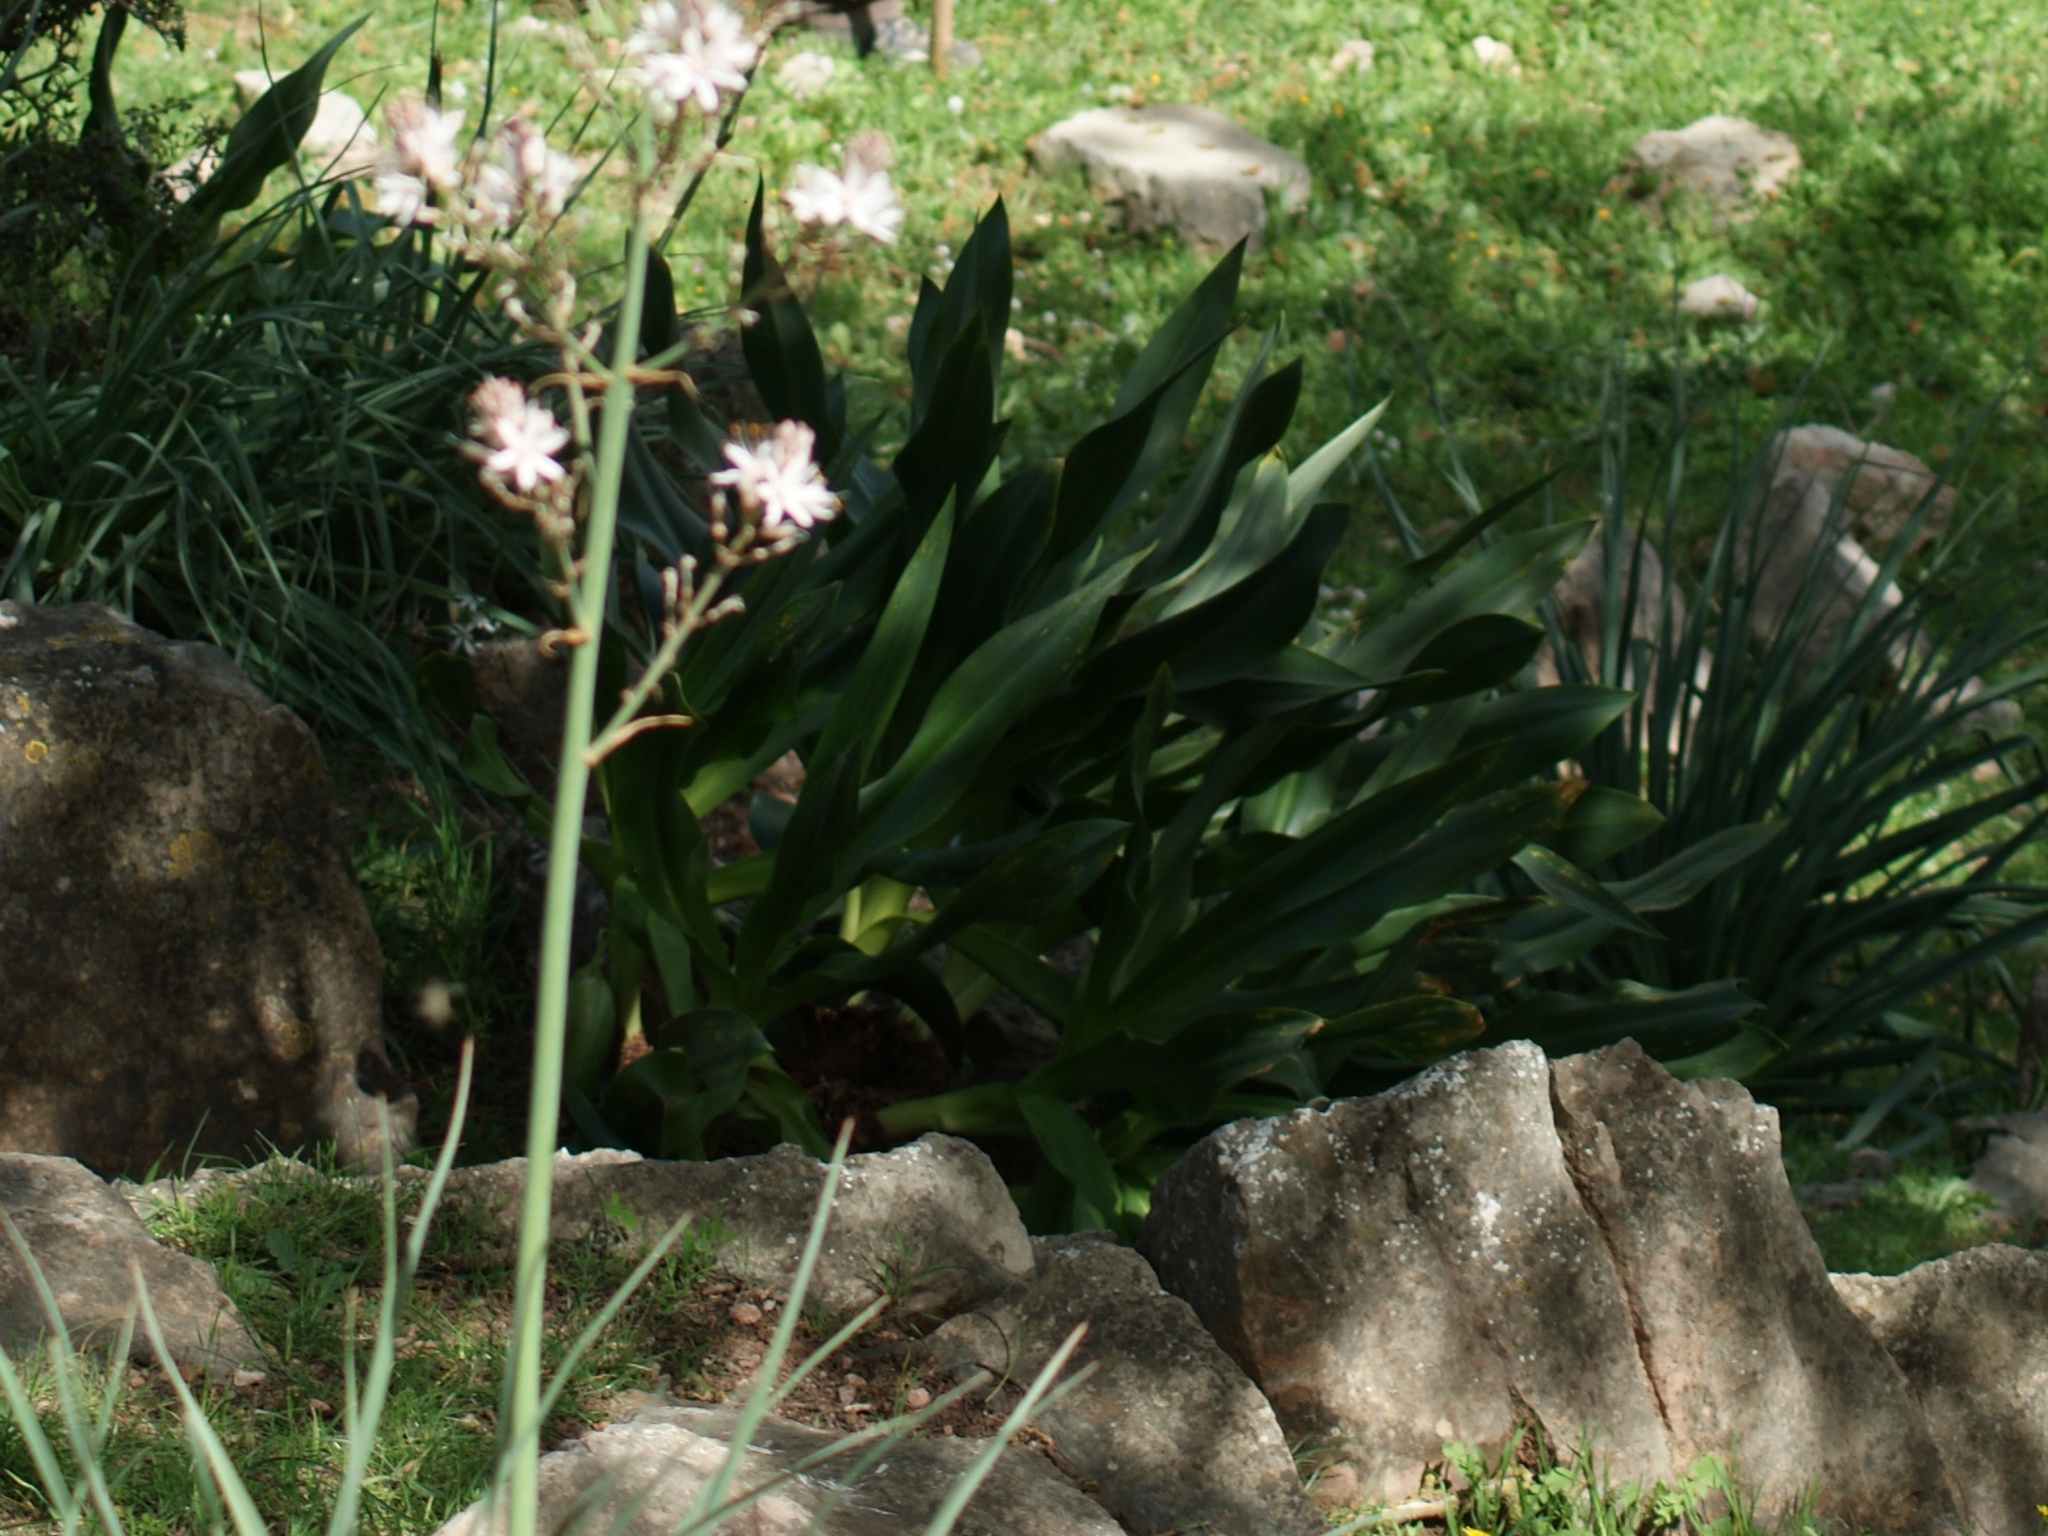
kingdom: Plantae
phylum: Tracheophyta
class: Liliopsida
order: Asparagales
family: Asparagaceae
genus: Drimia
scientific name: Drimia numidica
